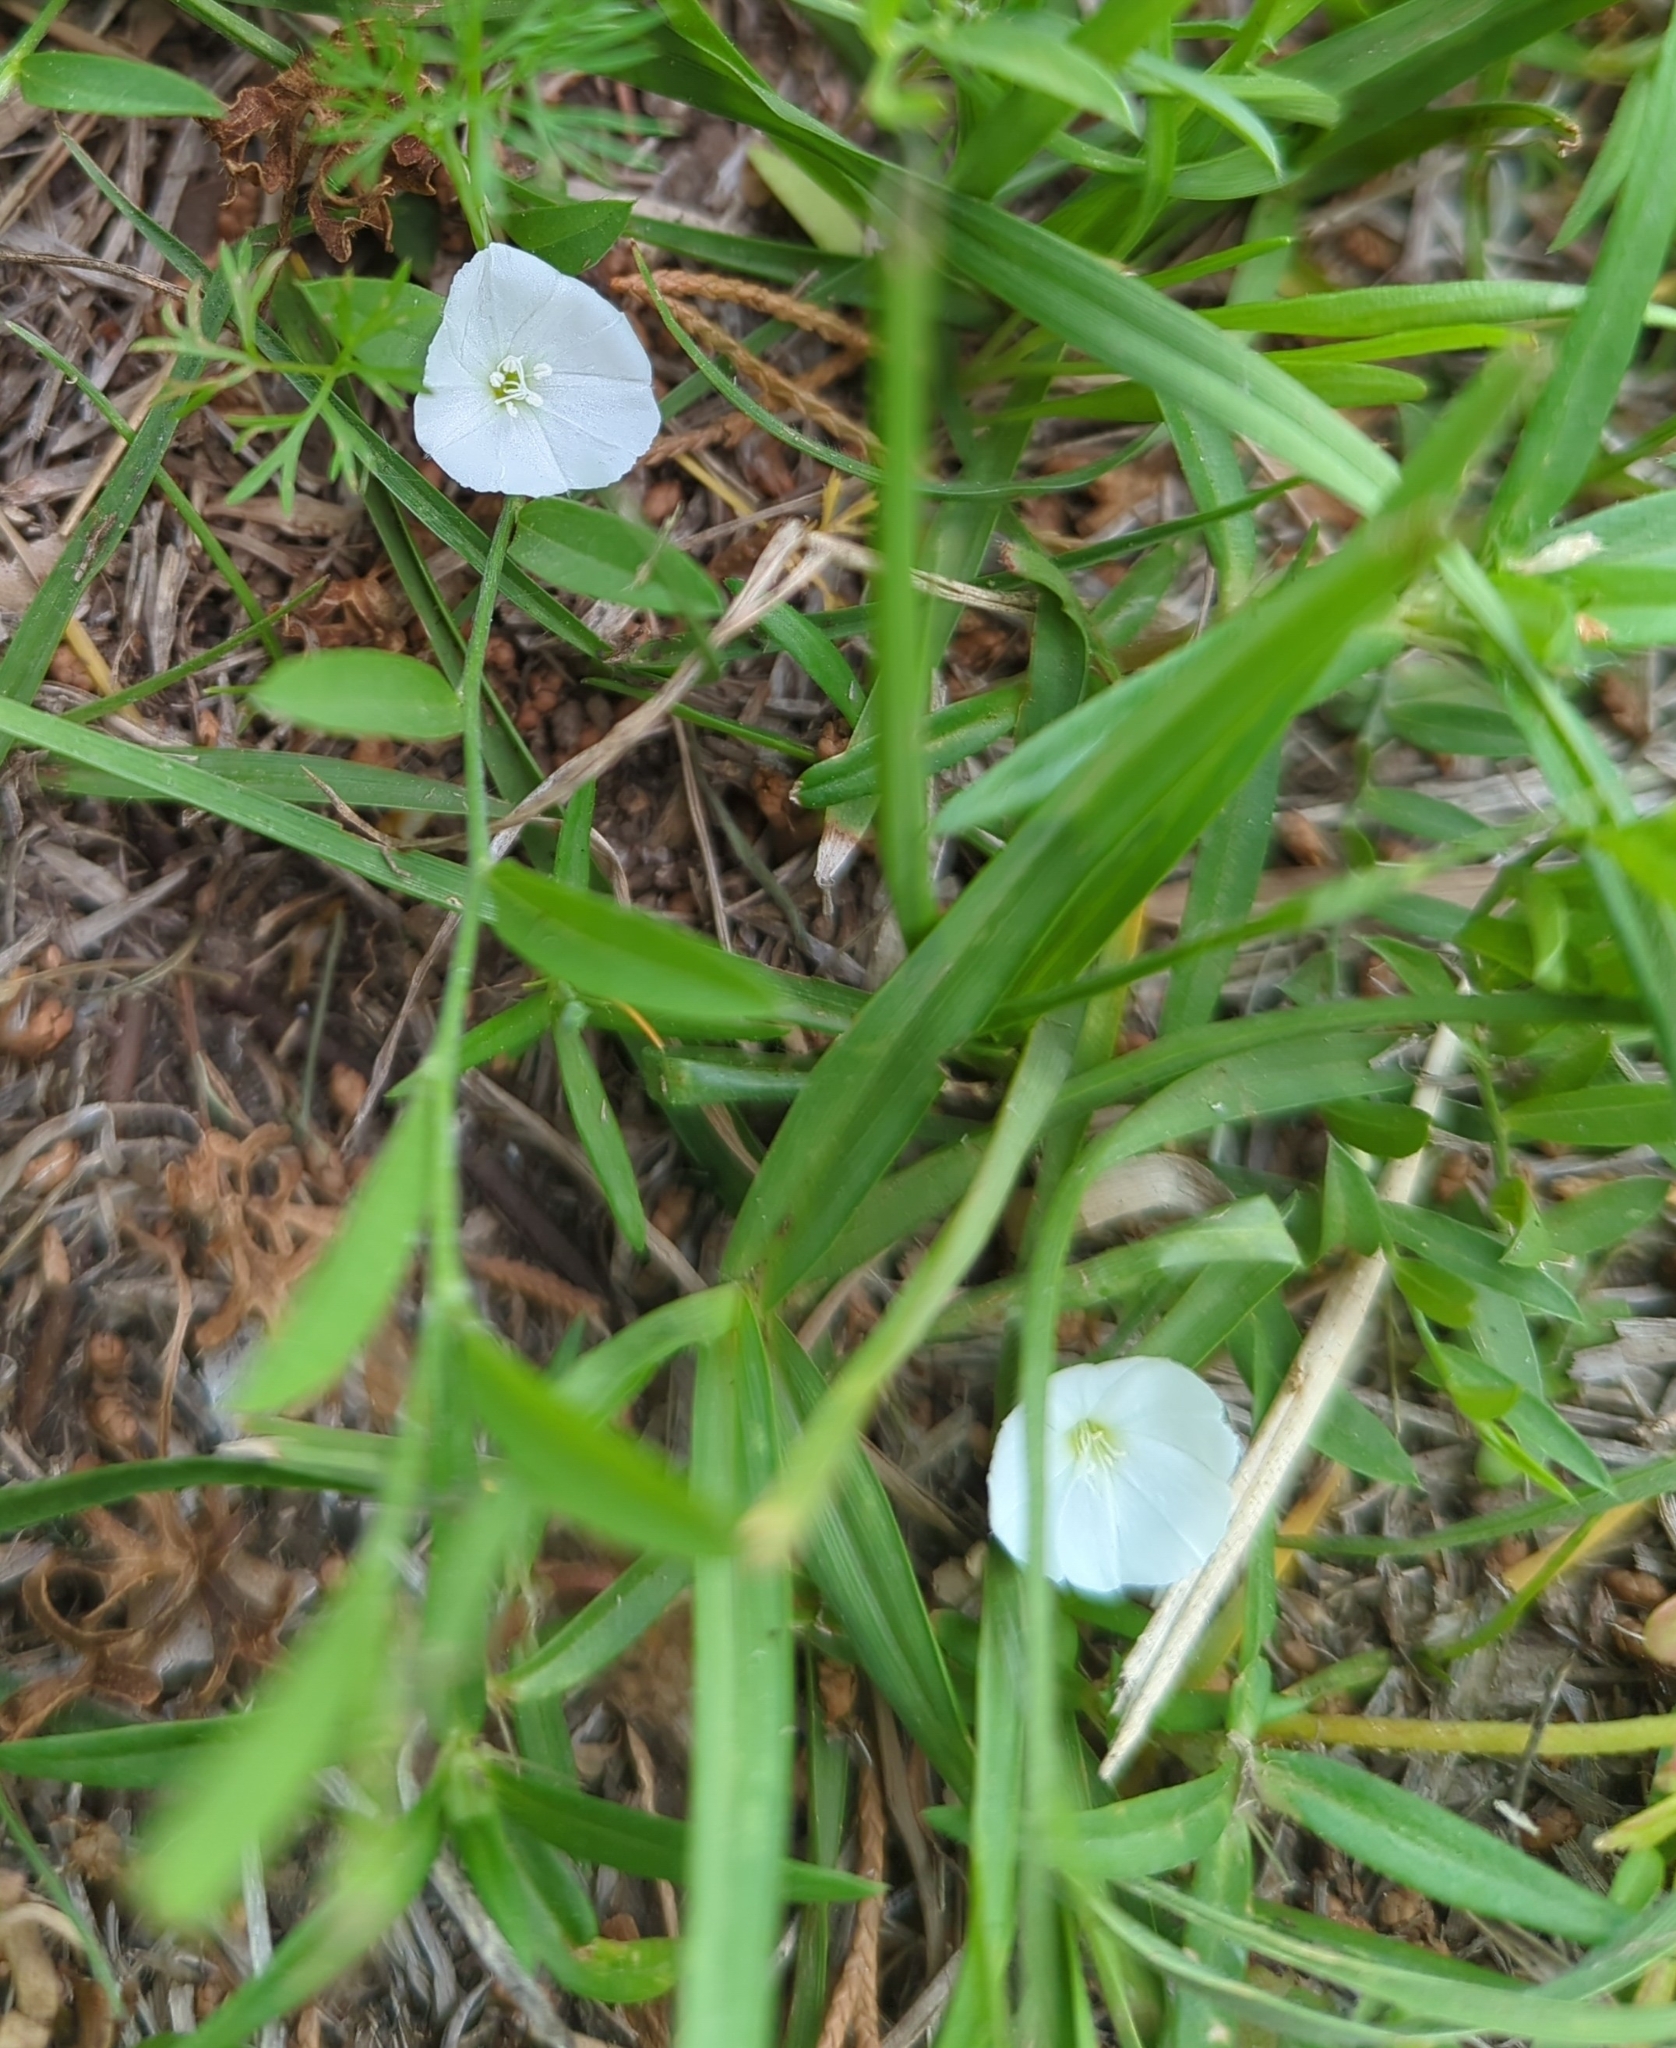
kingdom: Plantae
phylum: Tracheophyta
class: Magnoliopsida
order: Solanales
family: Convolvulaceae
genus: Evolvulus
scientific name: Evolvulus sericeus
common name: Blue dots
